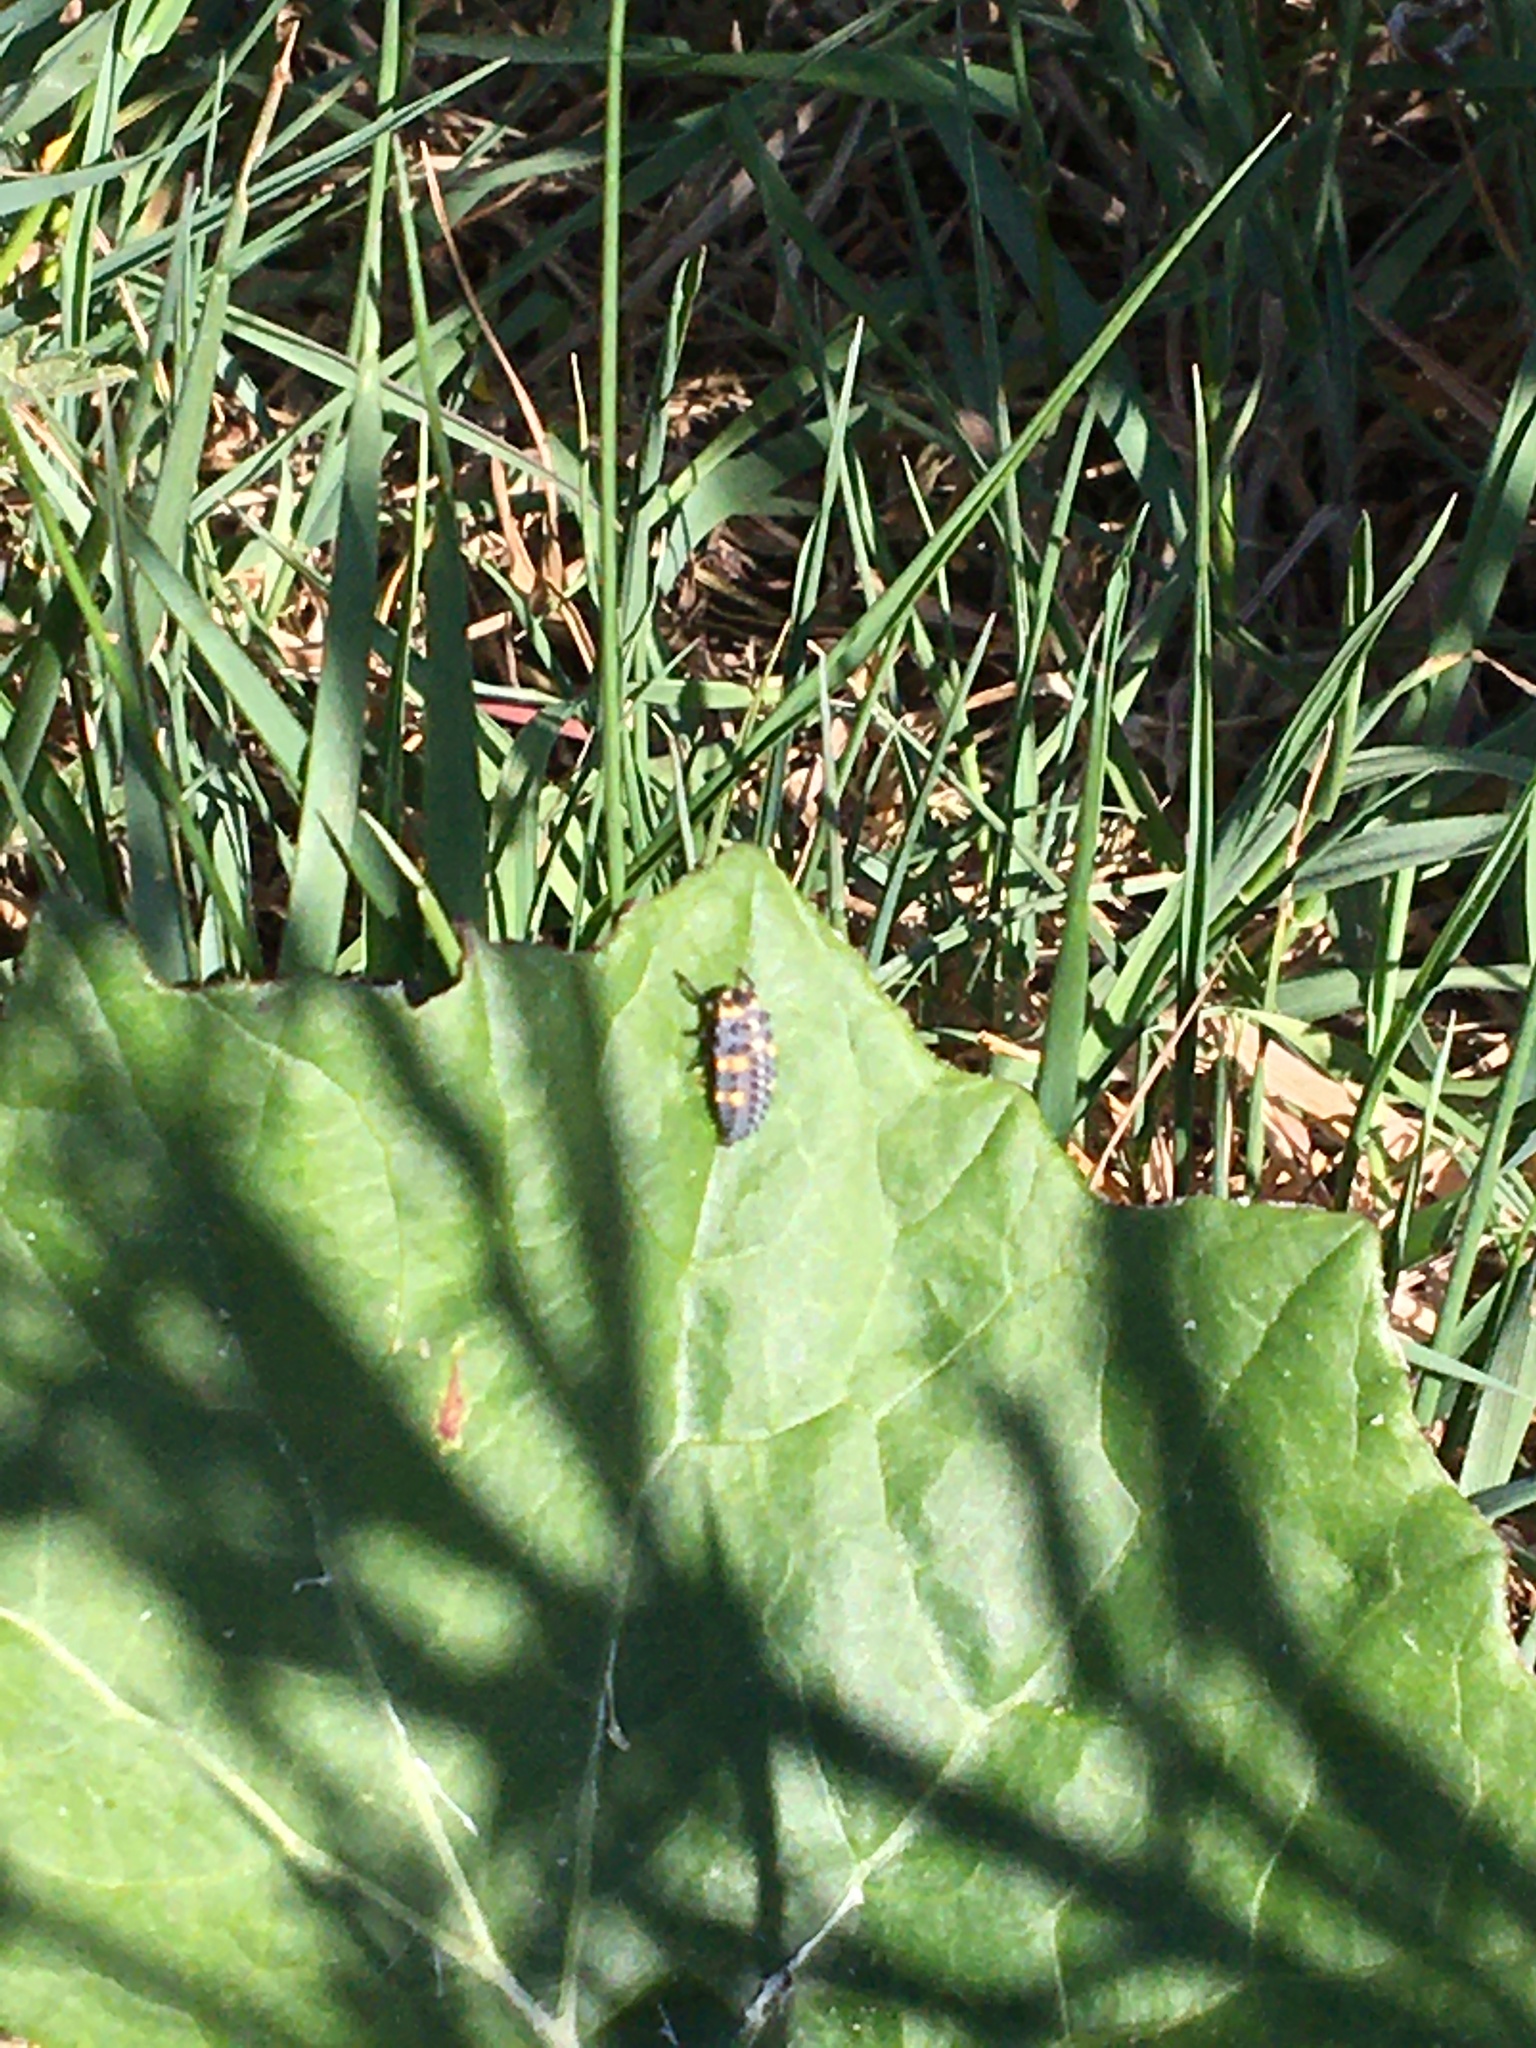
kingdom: Animalia
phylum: Arthropoda
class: Insecta
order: Coleoptera
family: Coccinellidae
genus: Coccinella
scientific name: Coccinella septempunctata
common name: Sevenspotted lady beetle
